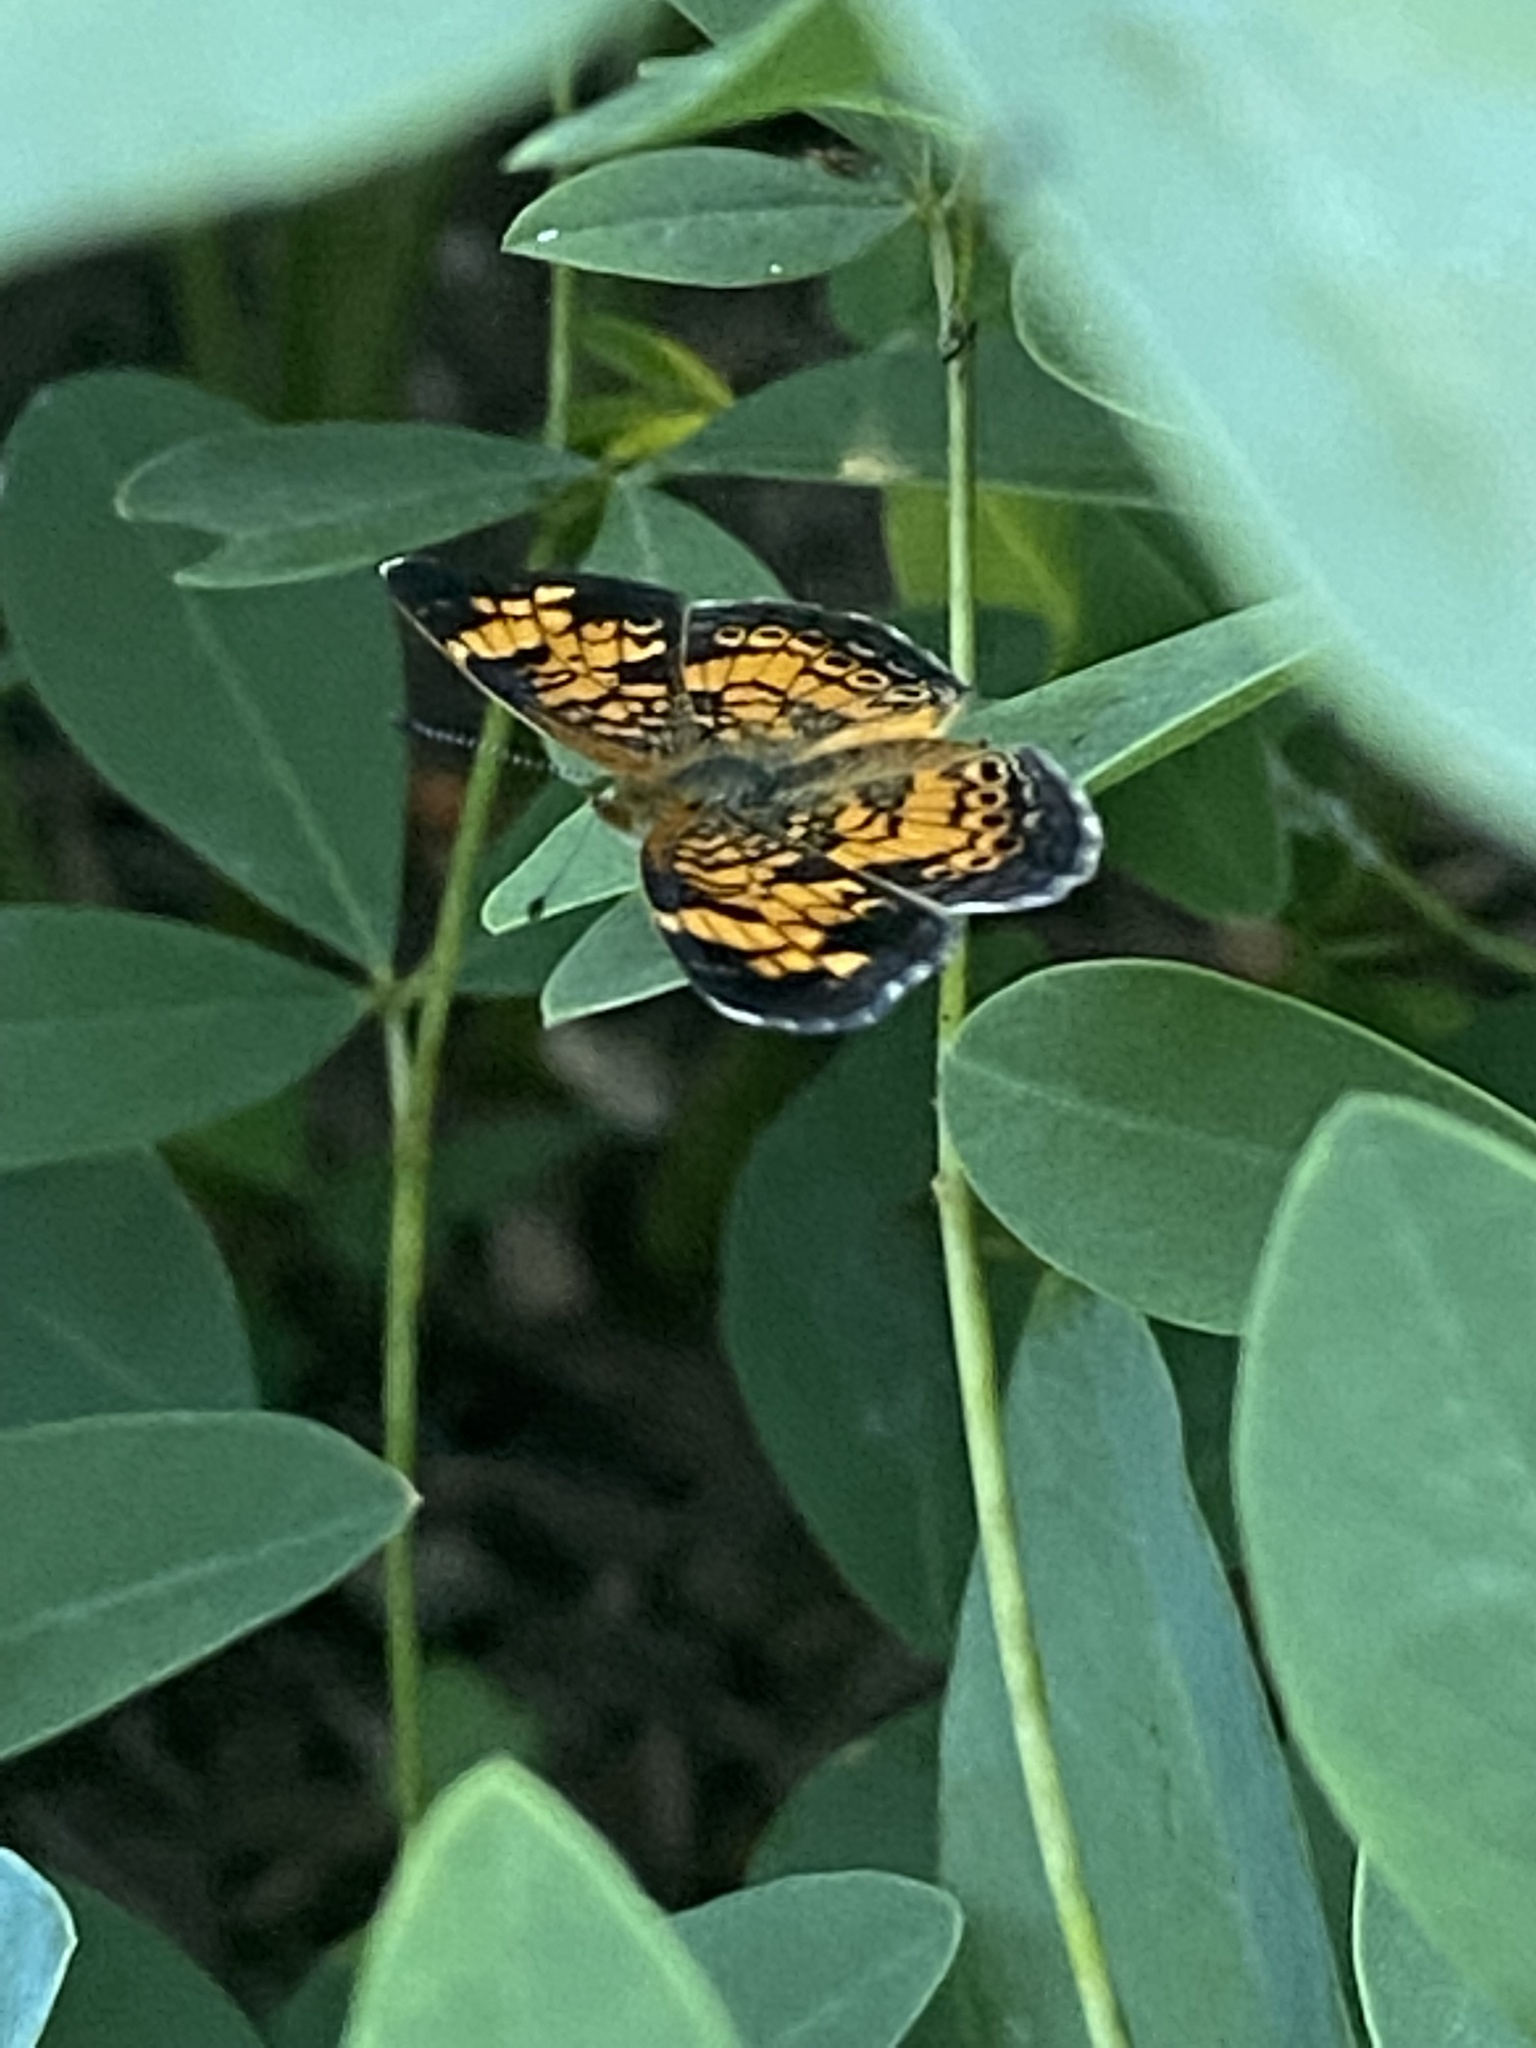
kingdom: Animalia
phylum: Arthropoda
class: Insecta
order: Lepidoptera
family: Nymphalidae
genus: Phyciodes
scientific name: Phyciodes tharos
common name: Pearl crescent
